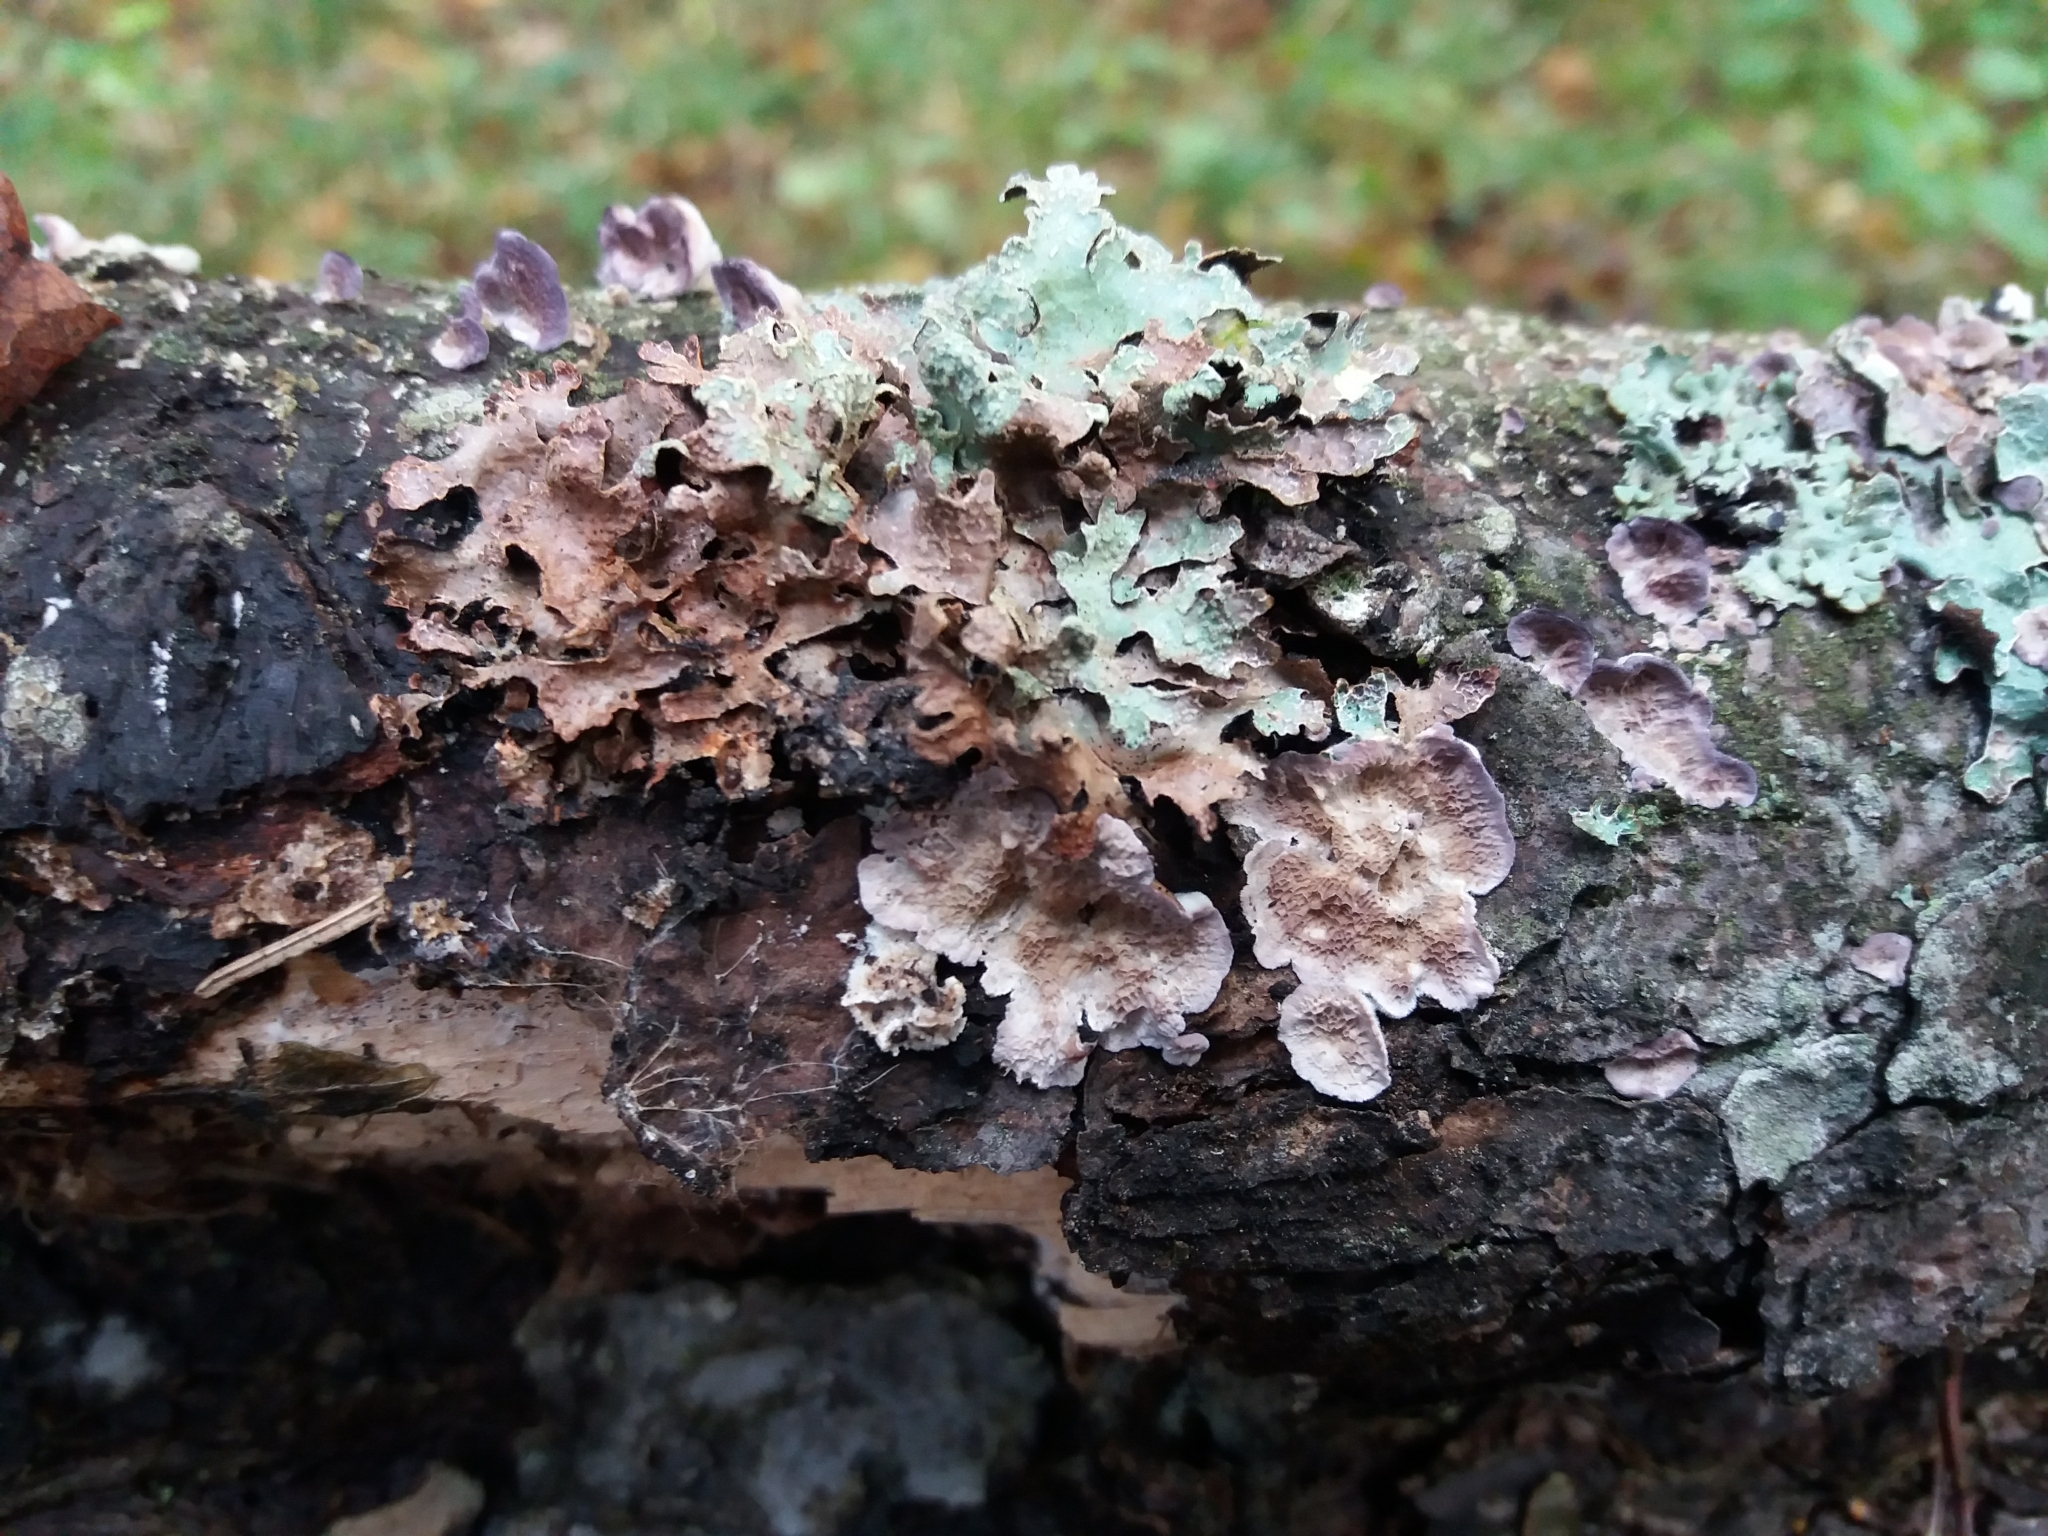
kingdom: Fungi
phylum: Basidiomycota
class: Agaricomycetes
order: Hymenochaetales
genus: Trichaptum
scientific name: Trichaptum fuscoviolaceum
